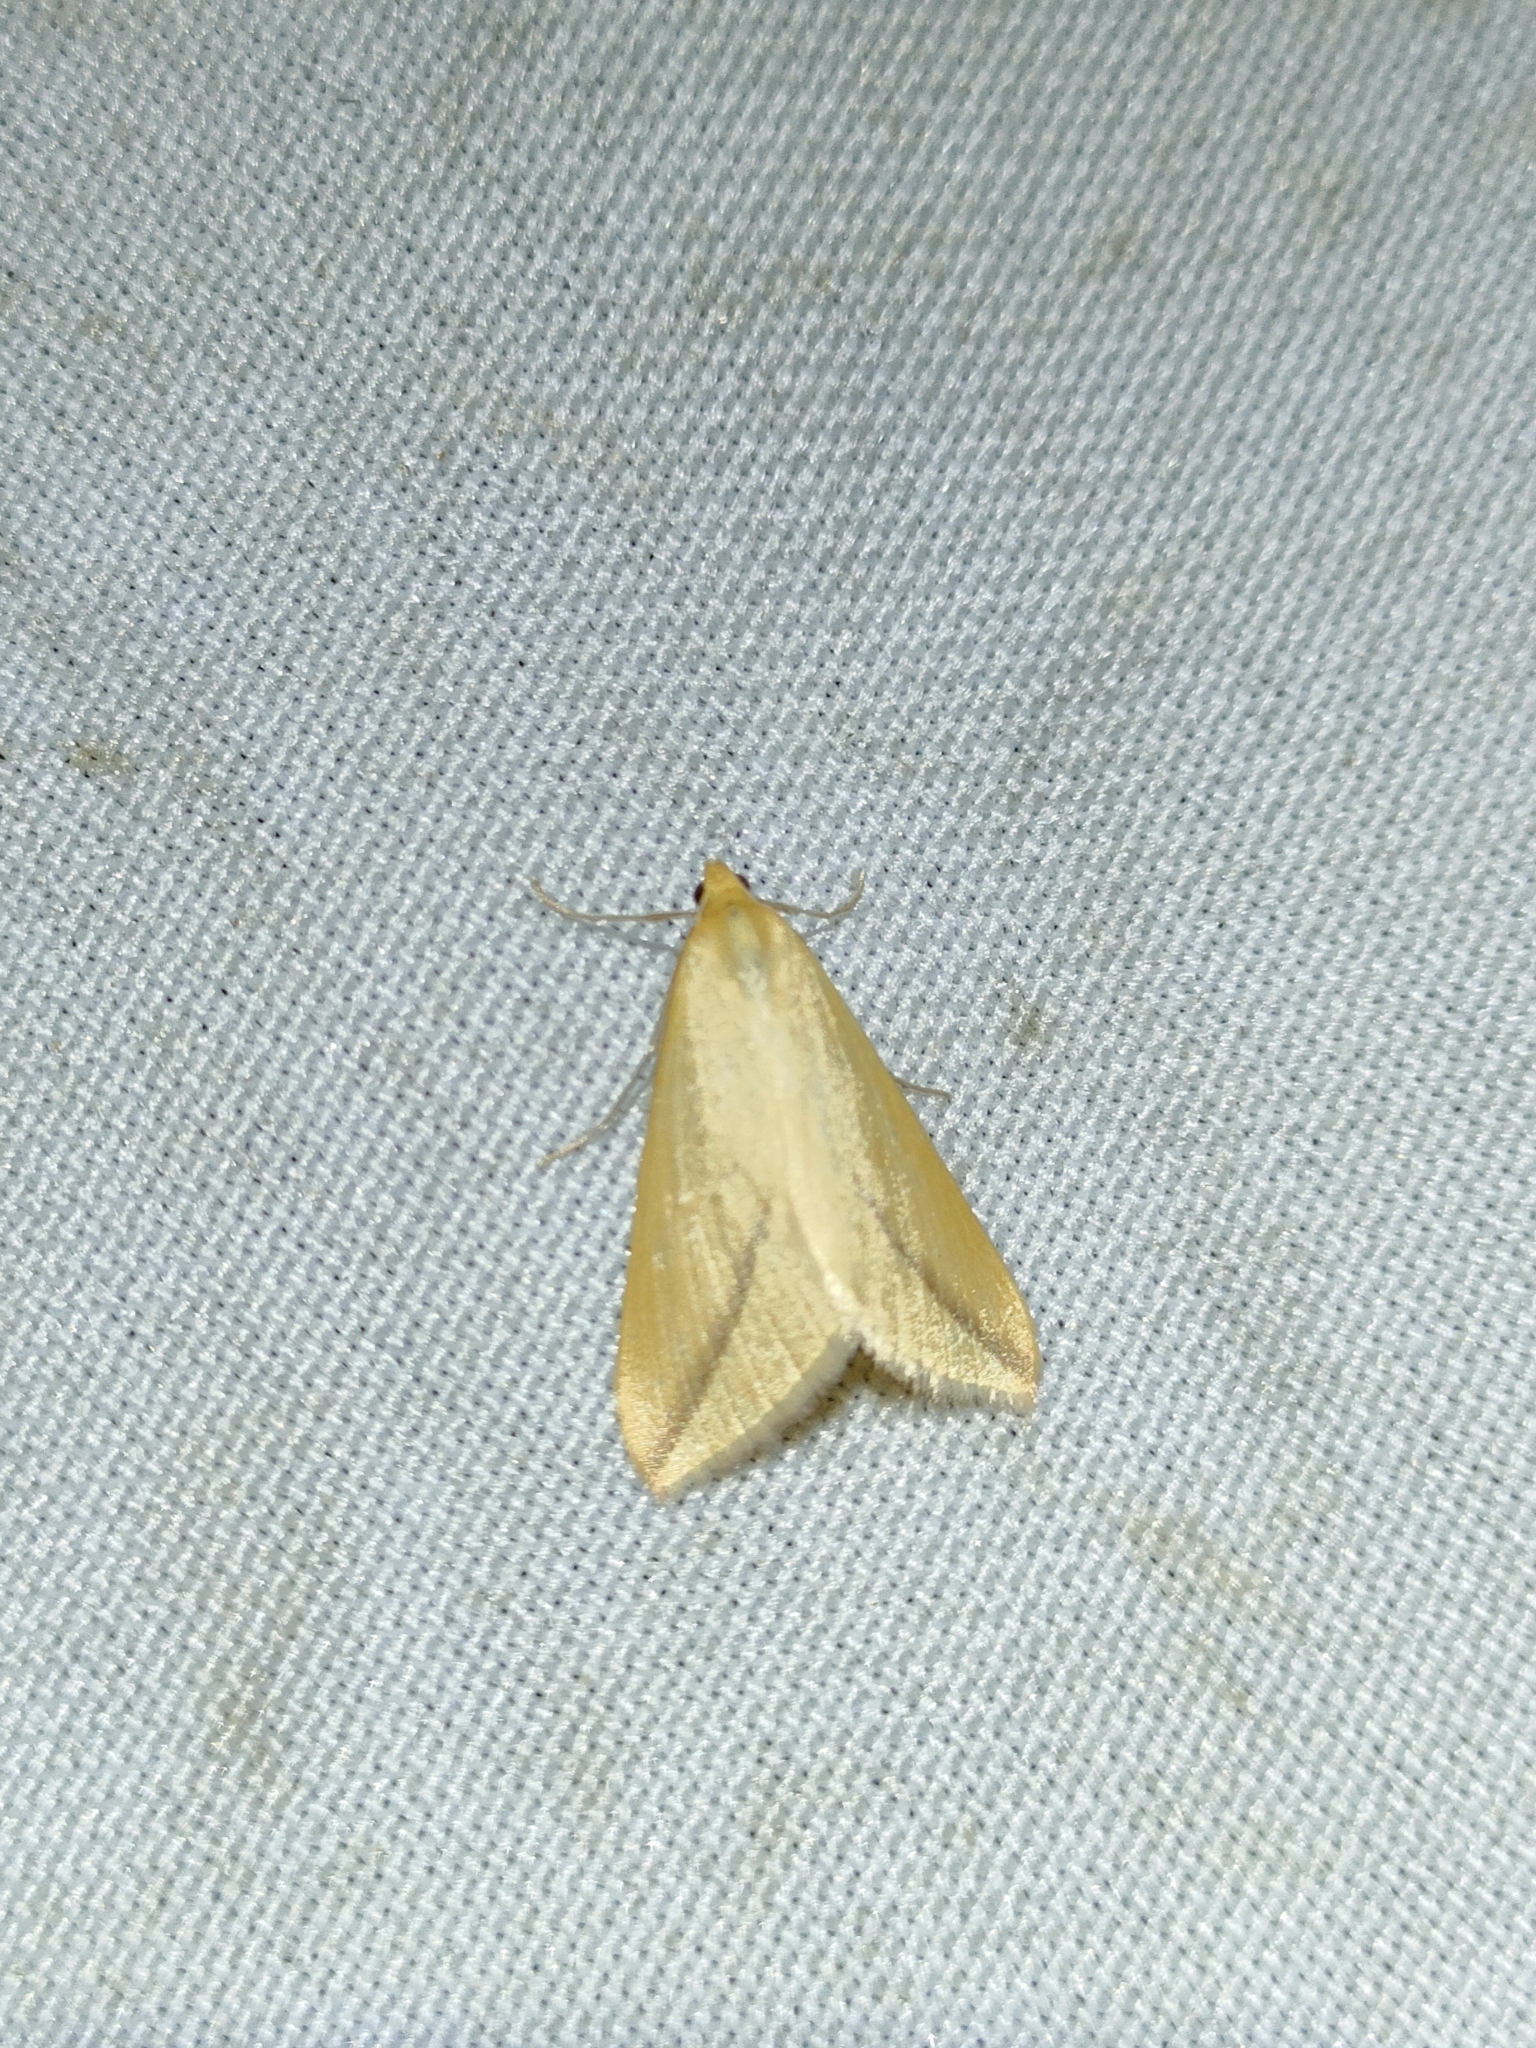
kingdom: Animalia
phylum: Arthropoda
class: Insecta
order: Lepidoptera
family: Geometridae
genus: Rhodometra
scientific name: Rhodometra sacraria
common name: Vestal
